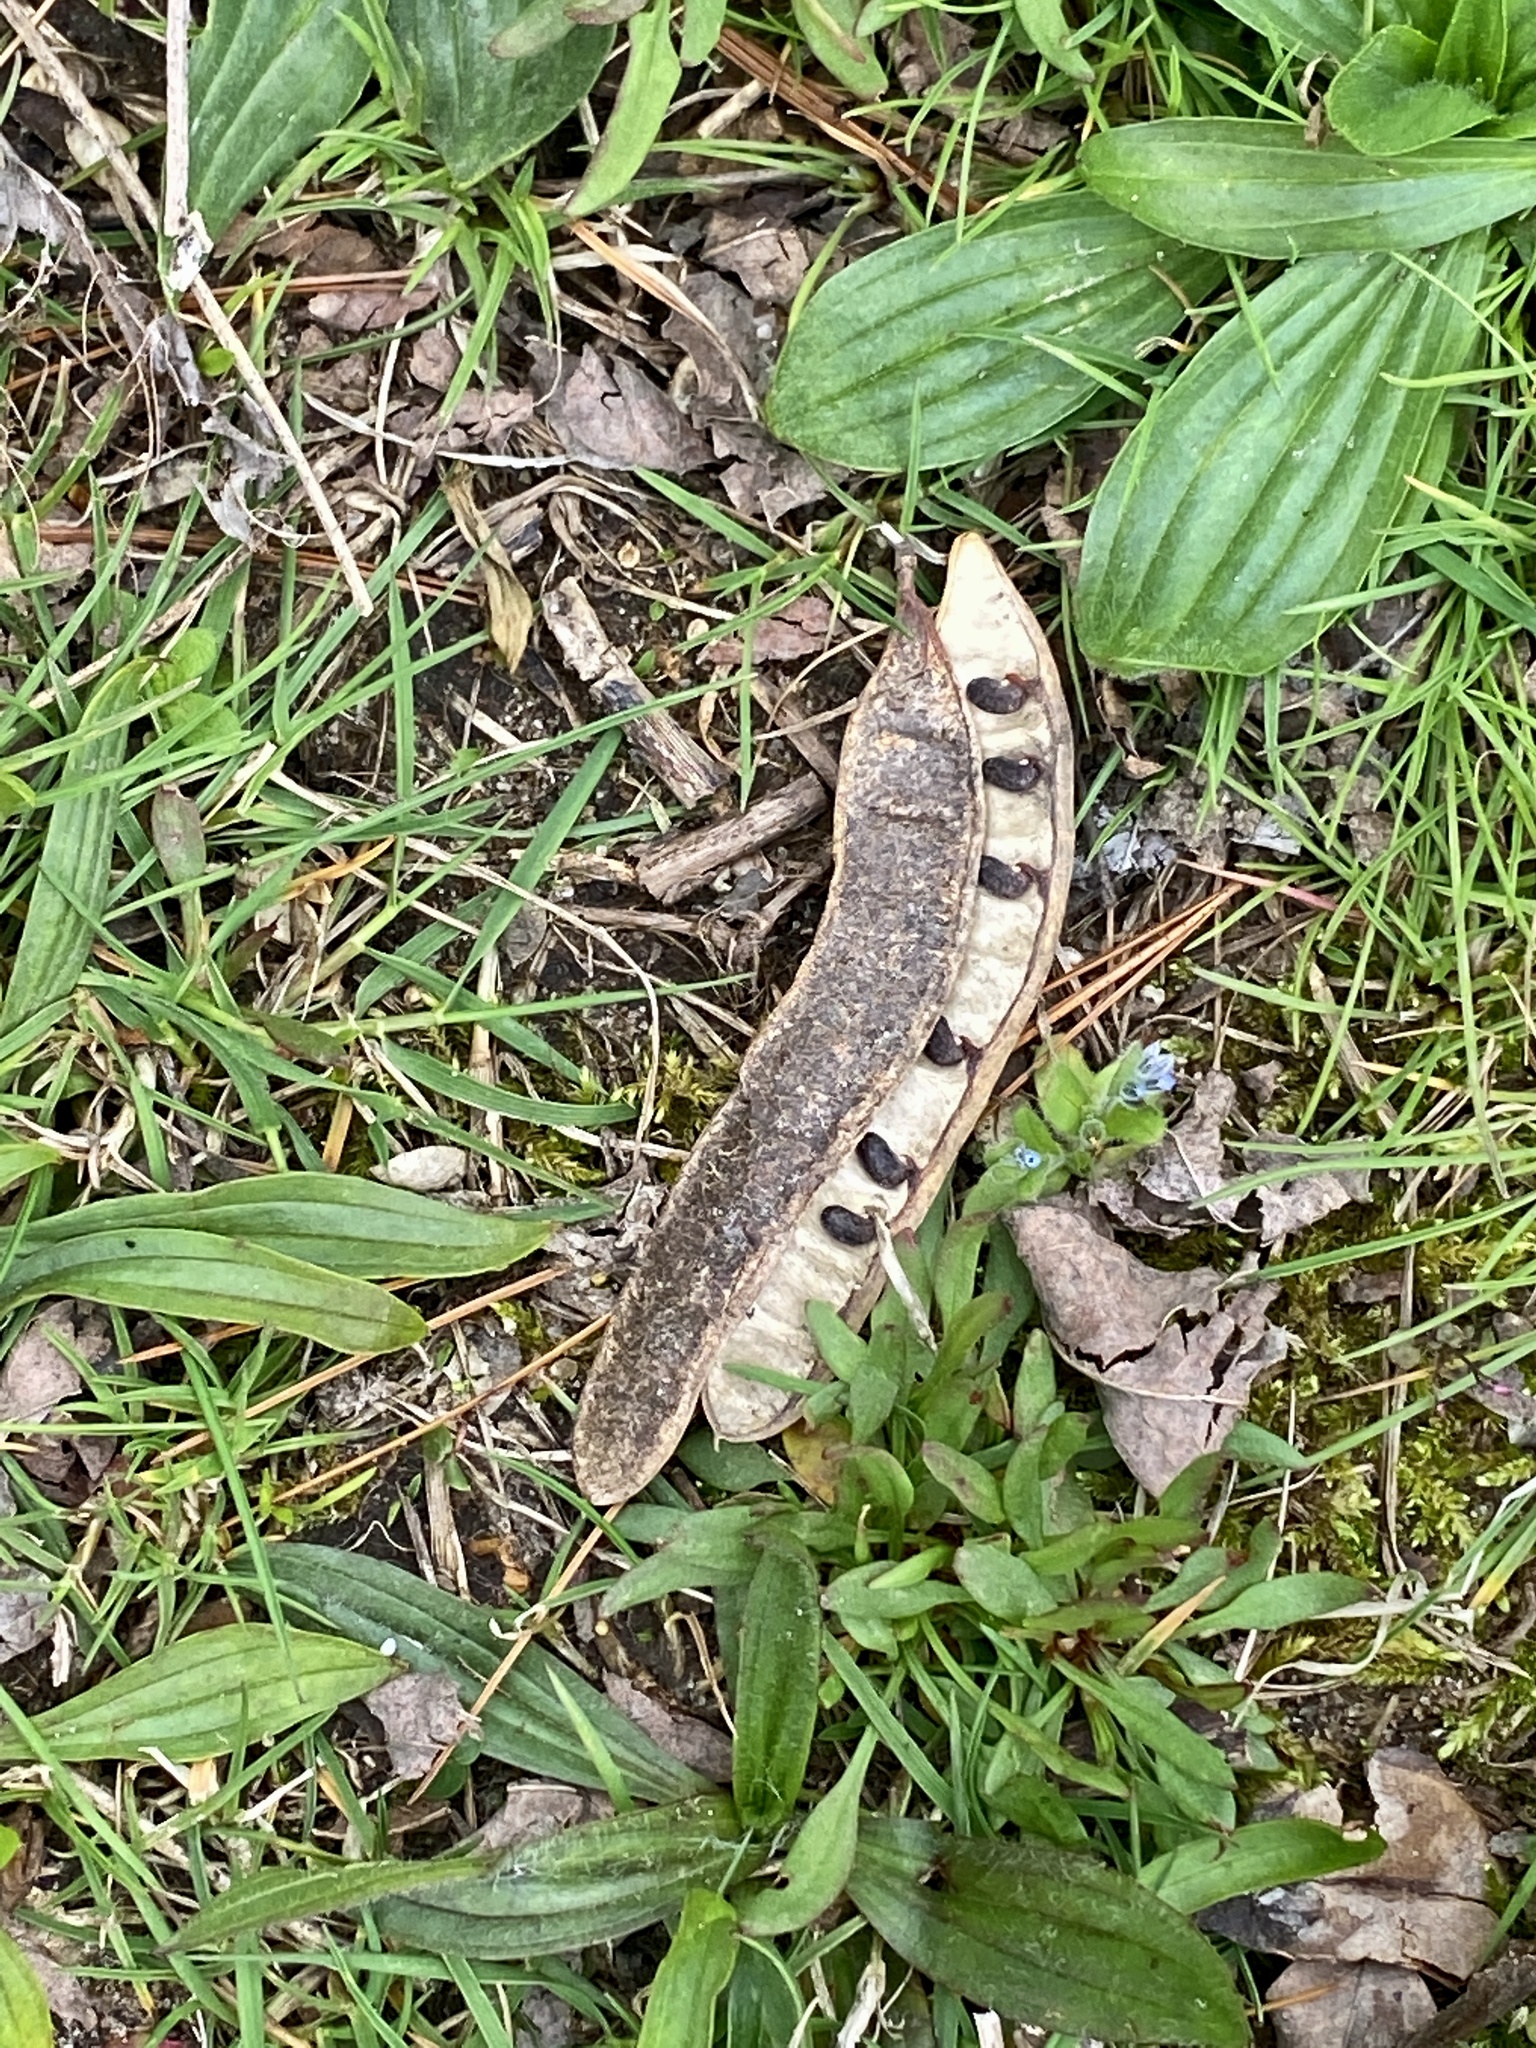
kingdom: Plantae
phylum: Tracheophyta
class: Magnoliopsida
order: Fabales
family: Fabaceae
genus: Robinia
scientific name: Robinia pseudoacacia
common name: Black locust
